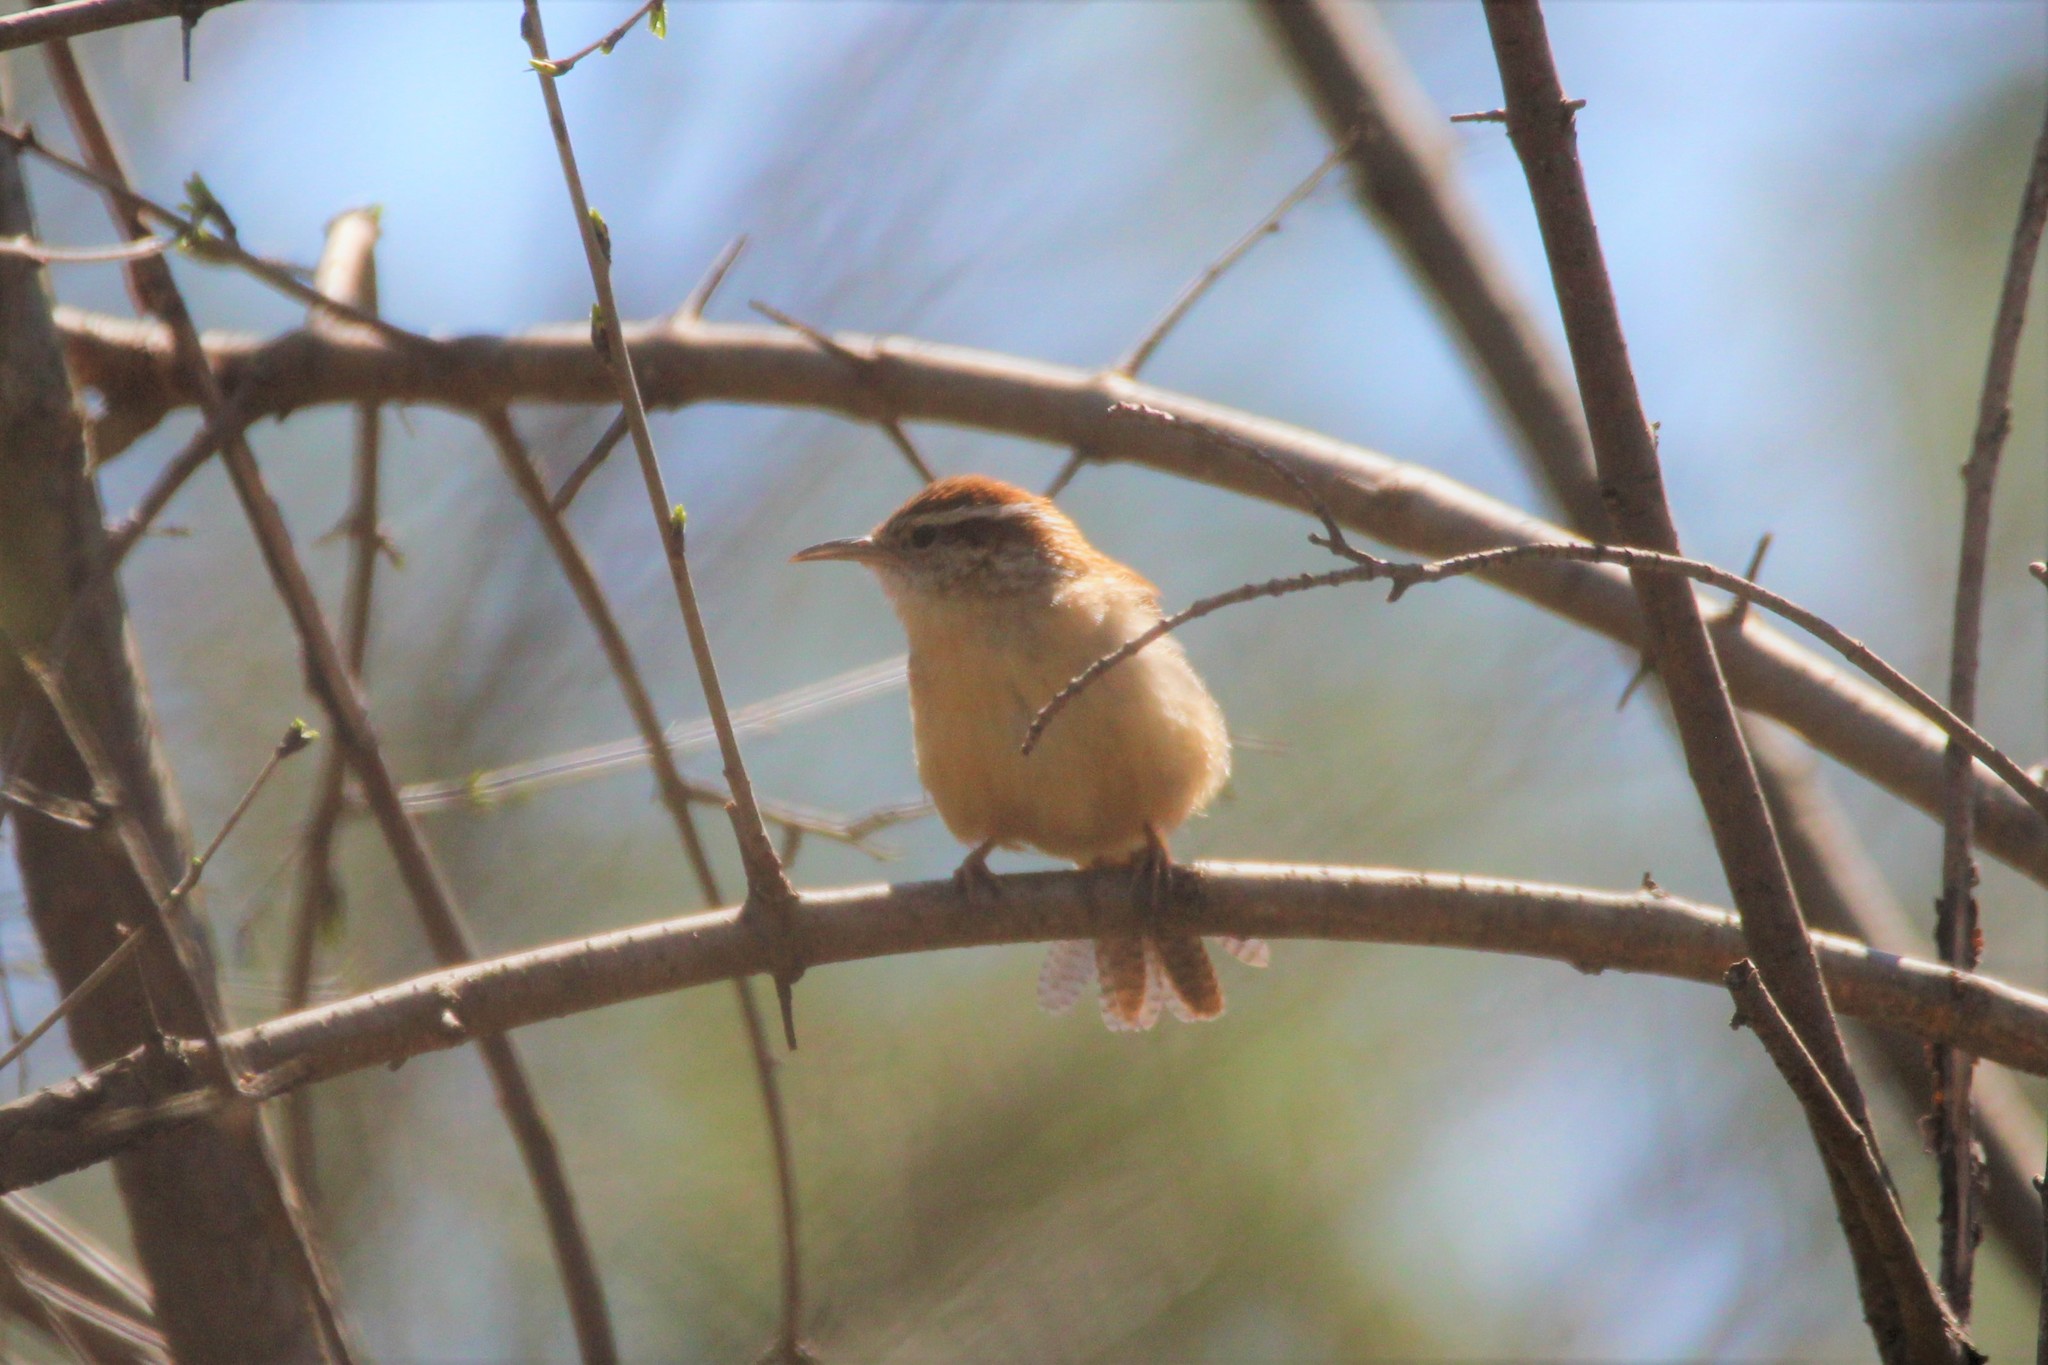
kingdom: Animalia
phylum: Chordata
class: Aves
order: Passeriformes
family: Troglodytidae
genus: Thryothorus
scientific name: Thryothorus ludovicianus
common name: Carolina wren
